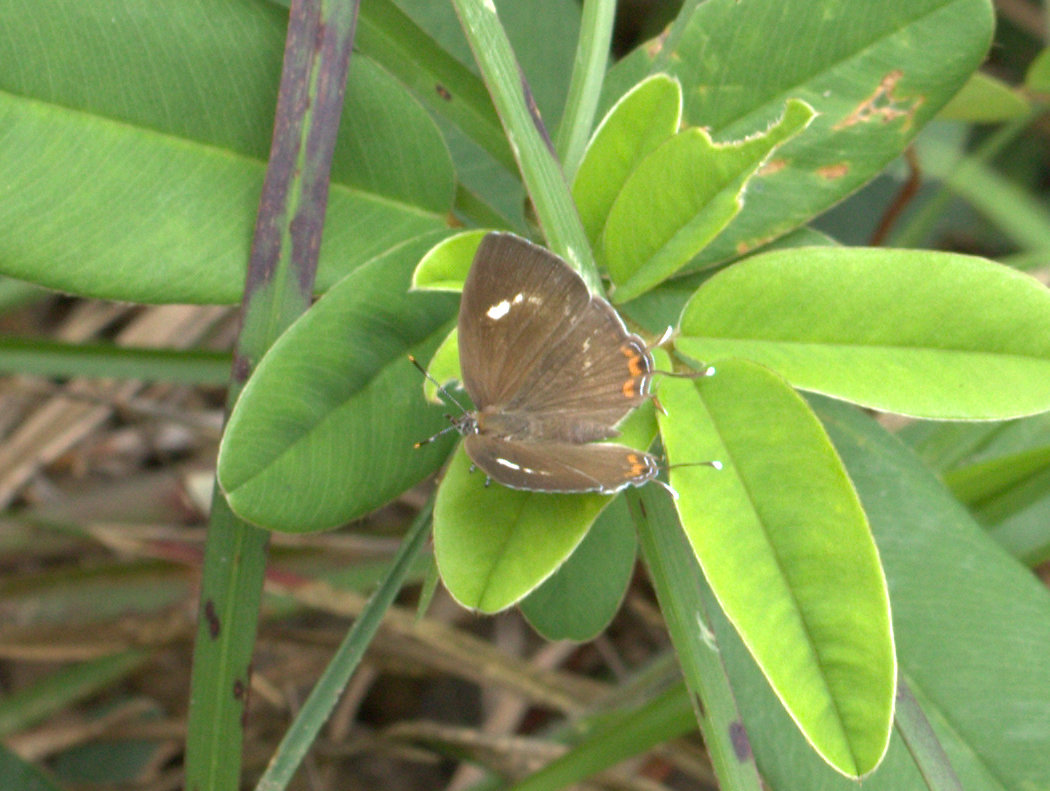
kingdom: Animalia
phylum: Arthropoda
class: Insecta
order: Lepidoptera
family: Lycaenidae
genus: Rathinda
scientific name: Rathinda amor
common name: Monkey puzzle
